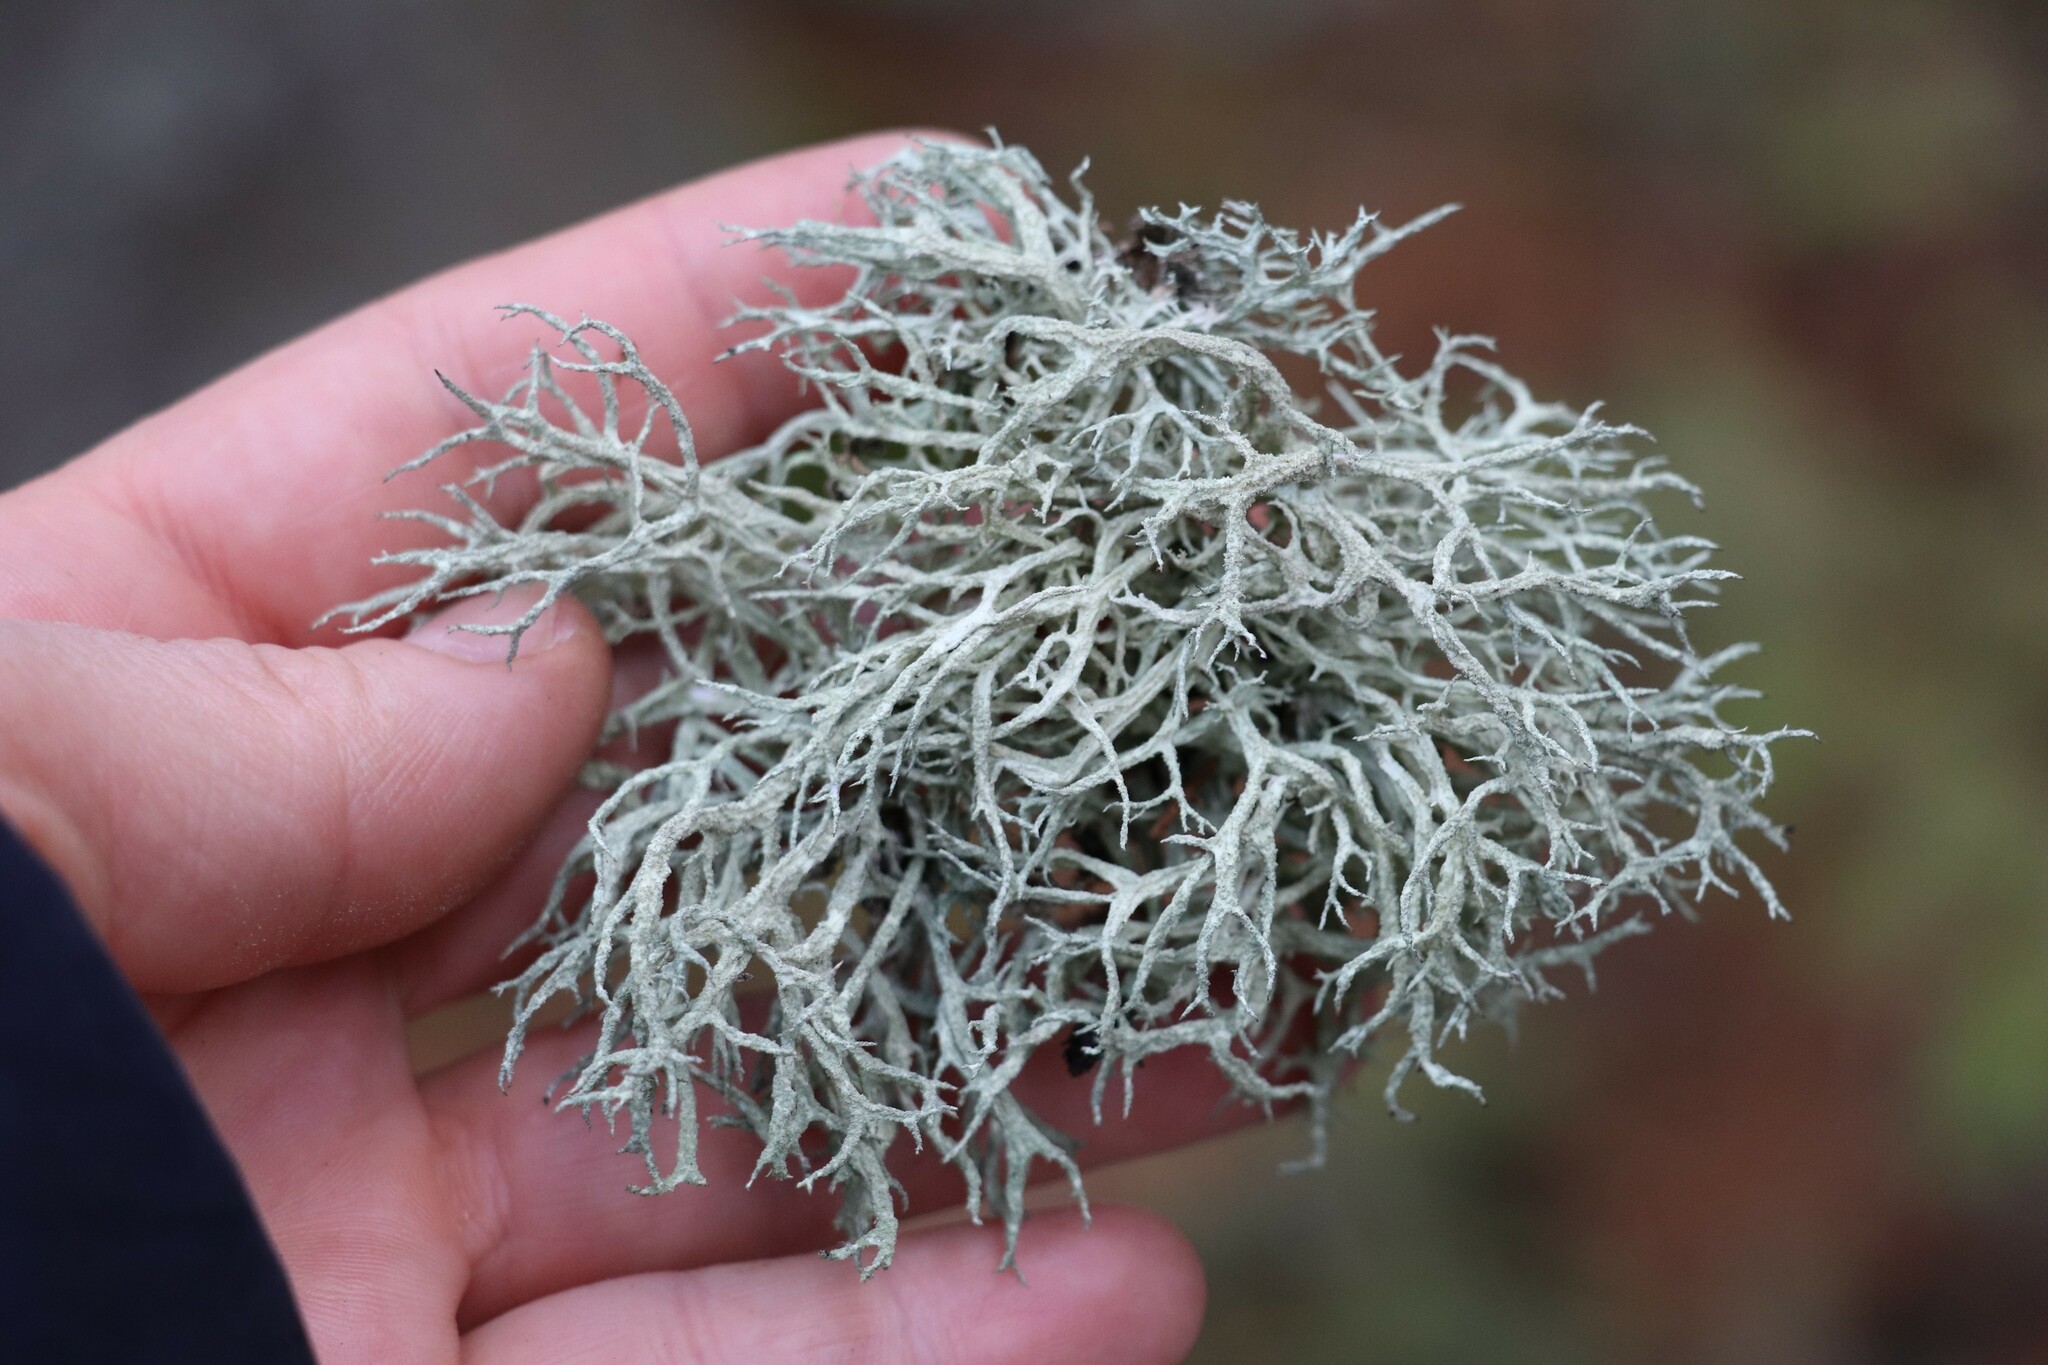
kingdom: Fungi
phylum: Ascomycota
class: Lecanoromycetes
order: Lecanorales
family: Parmeliaceae
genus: Evernia
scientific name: Evernia mesomorpha
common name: Boreal oak moss lichen
